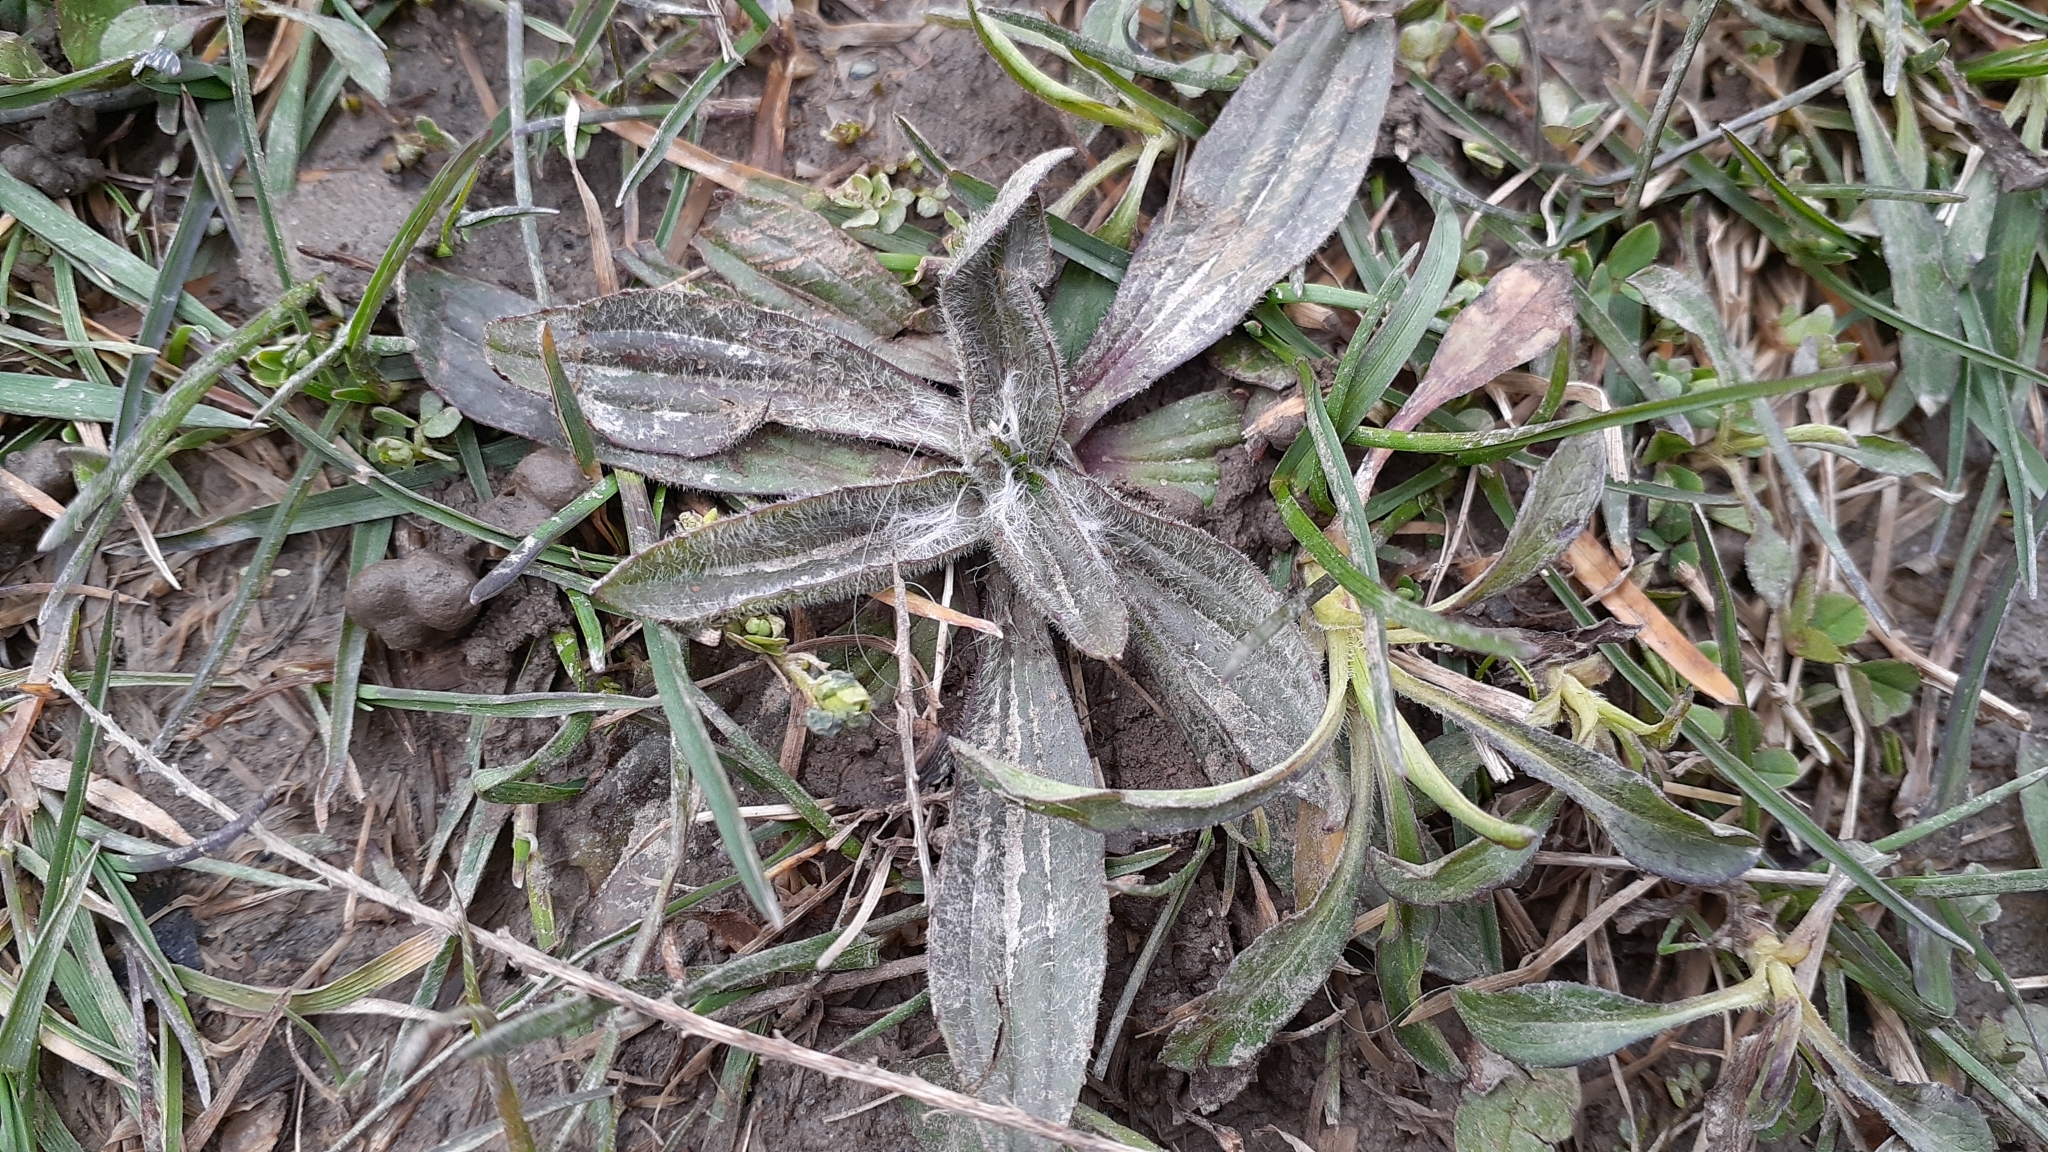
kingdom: Plantae
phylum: Tracheophyta
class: Magnoliopsida
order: Lamiales
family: Plantaginaceae
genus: Plantago
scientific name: Plantago lanceolata
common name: Ribwort plantain
